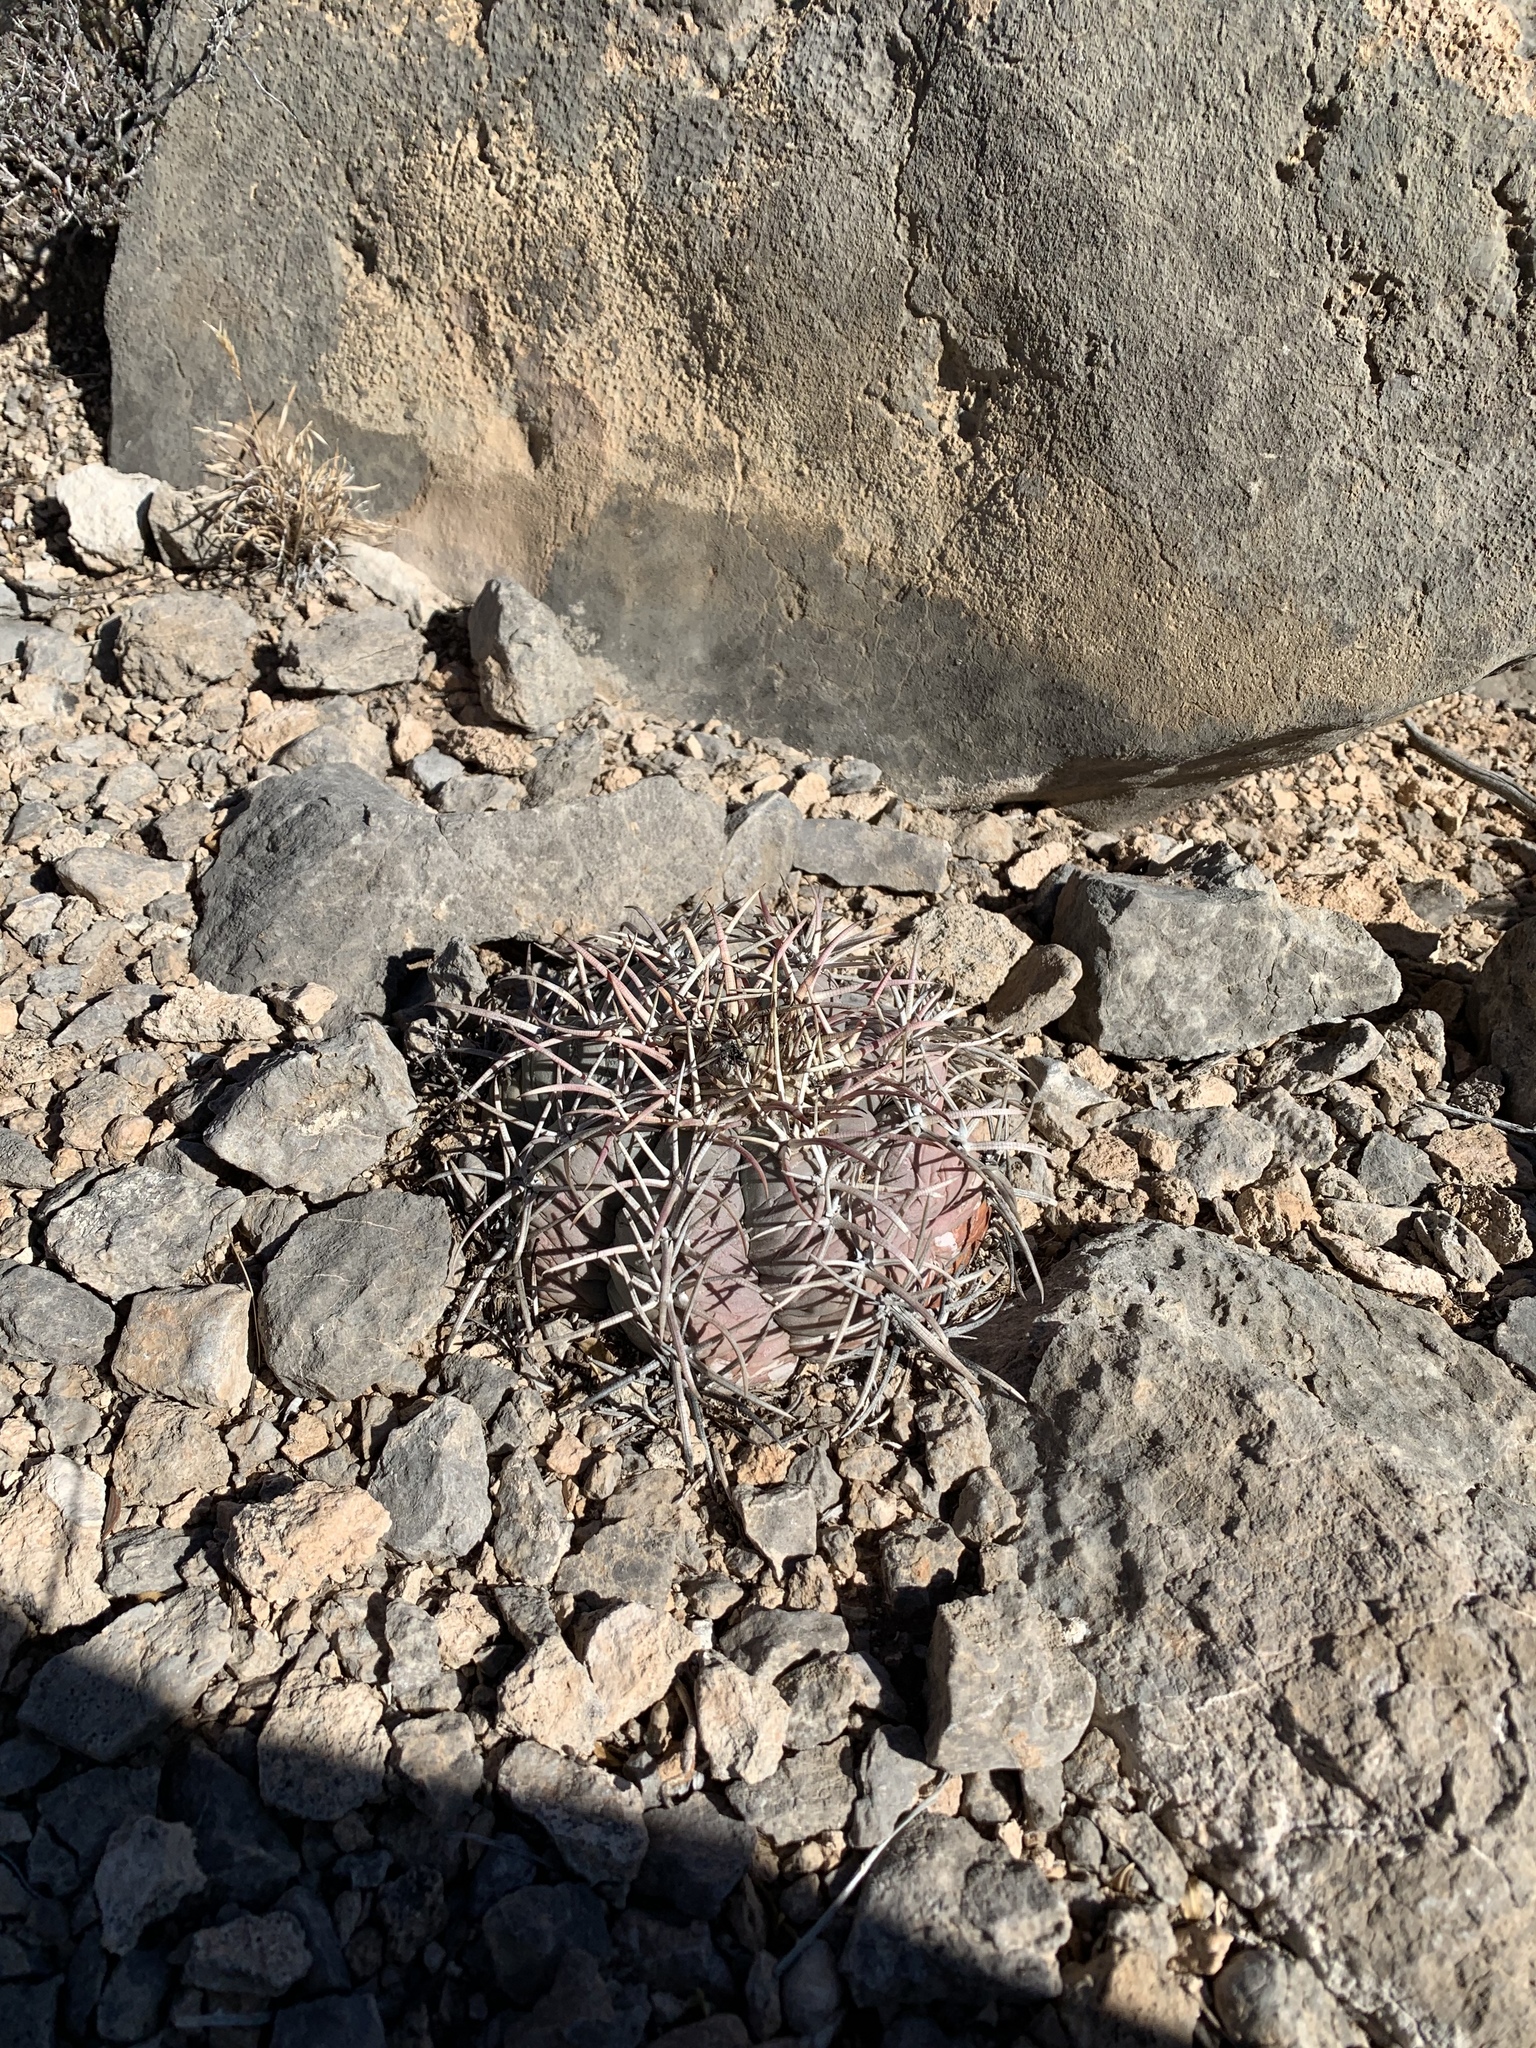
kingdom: Plantae
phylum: Tracheophyta
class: Magnoliopsida
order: Caryophyllales
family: Cactaceae
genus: Echinocactus
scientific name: Echinocactus horizonthalonius
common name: Devilshead
